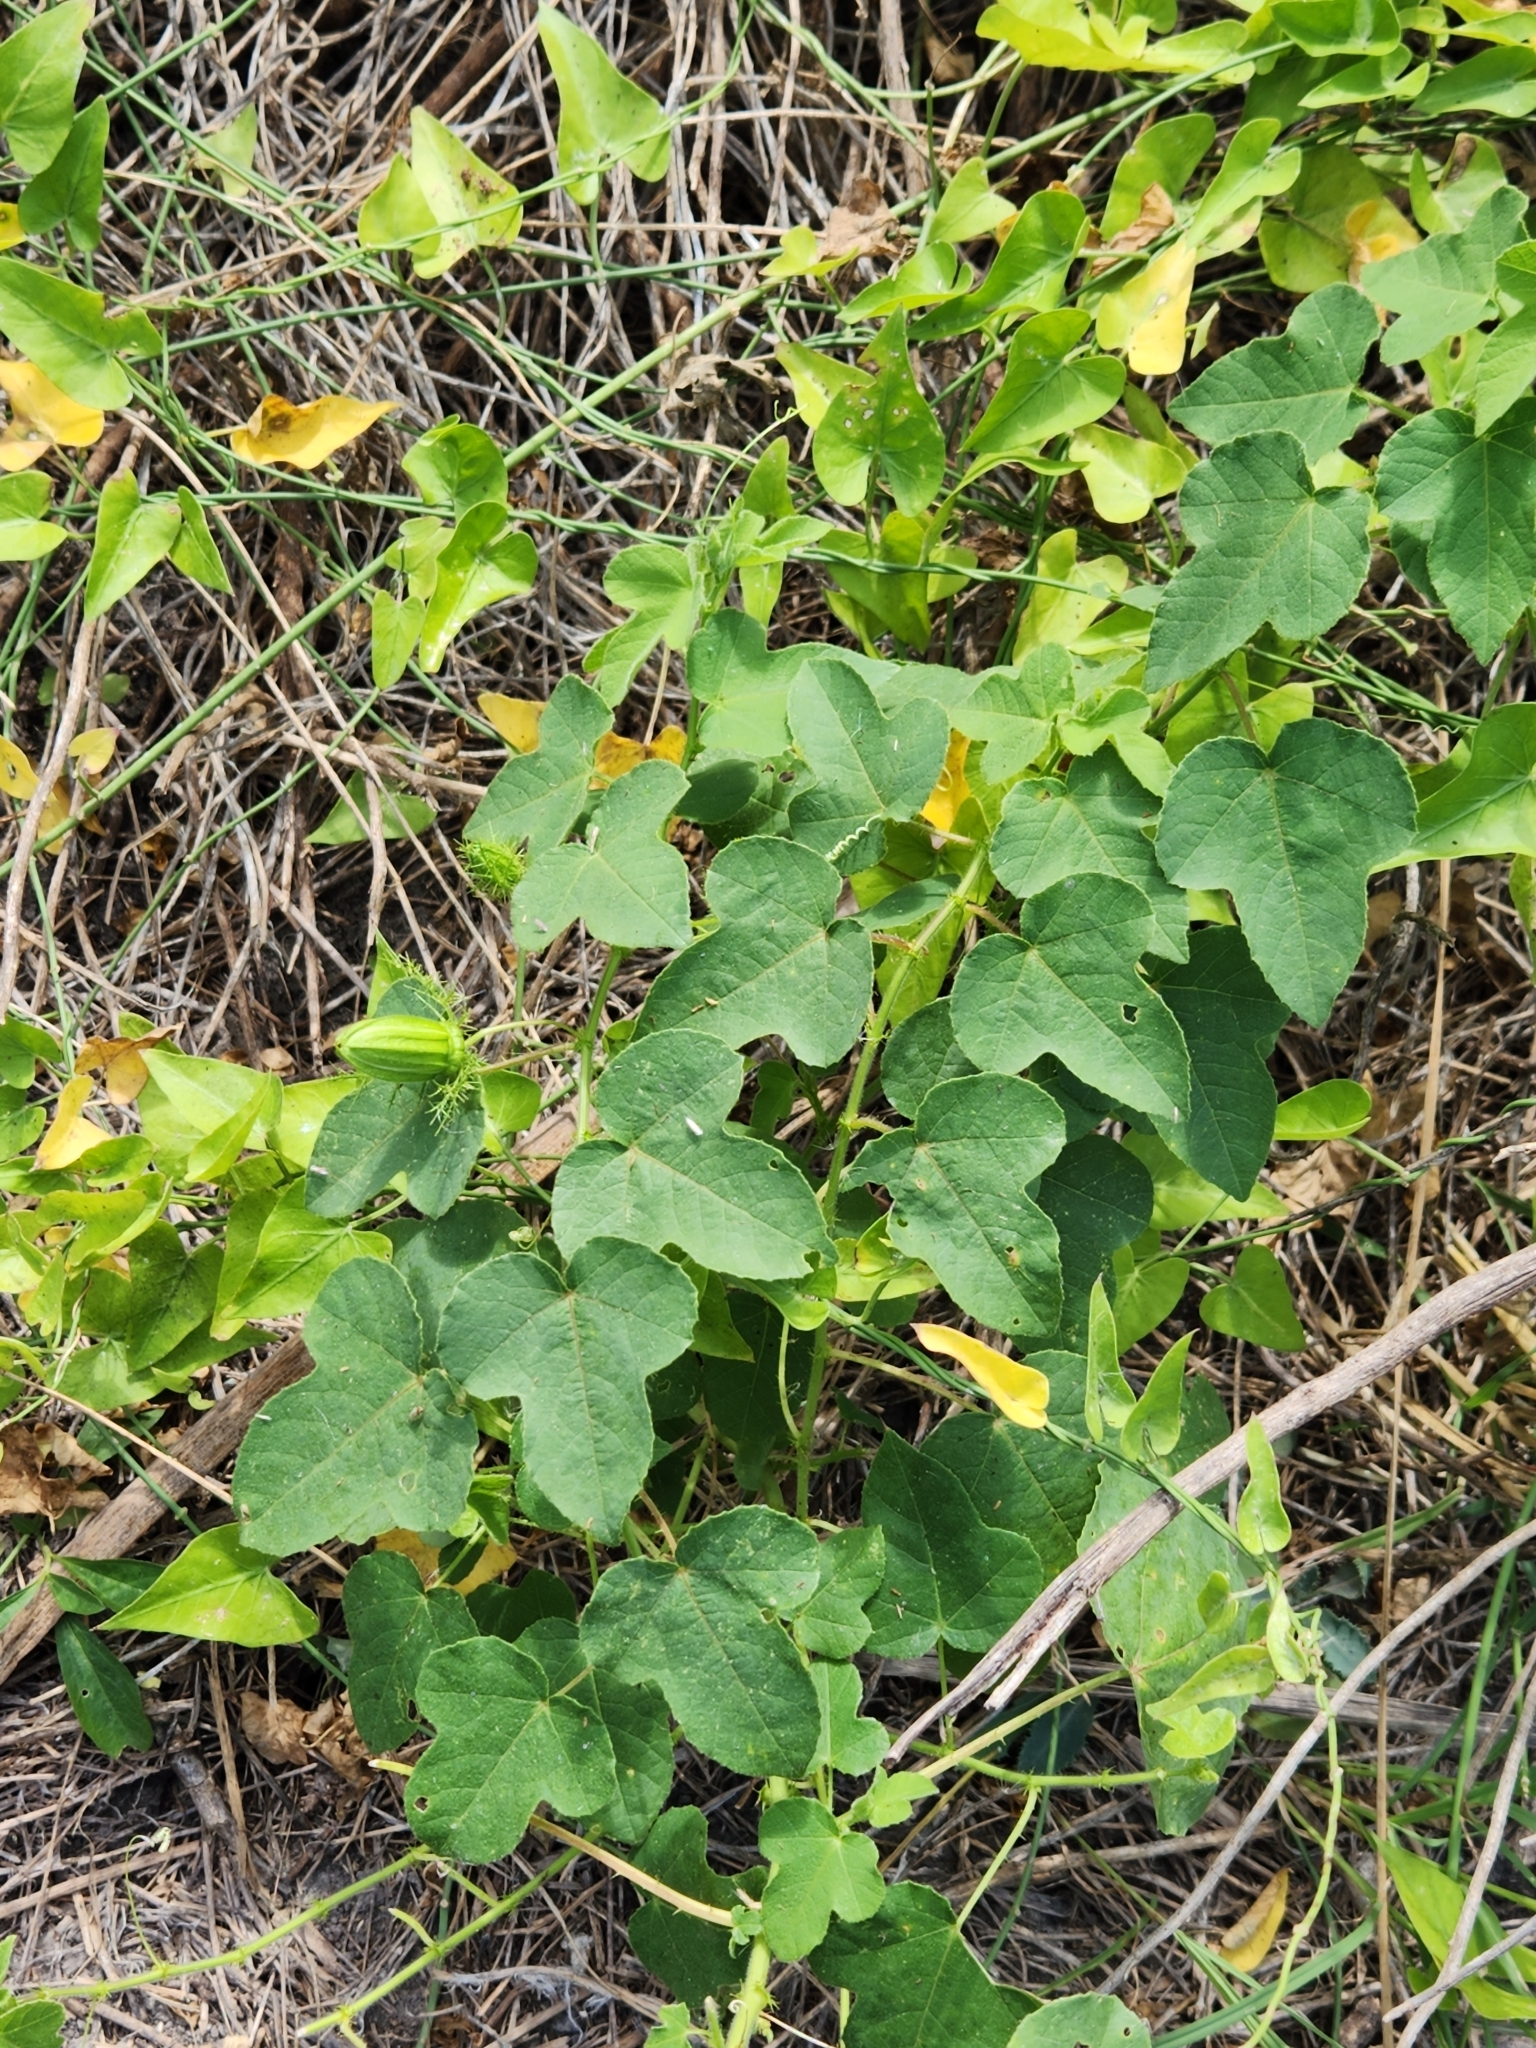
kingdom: Plantae
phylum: Tracheophyta
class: Magnoliopsida
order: Malpighiales
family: Passifloraceae
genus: Passiflora
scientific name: Passiflora foetida
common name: Fetid passionflower
